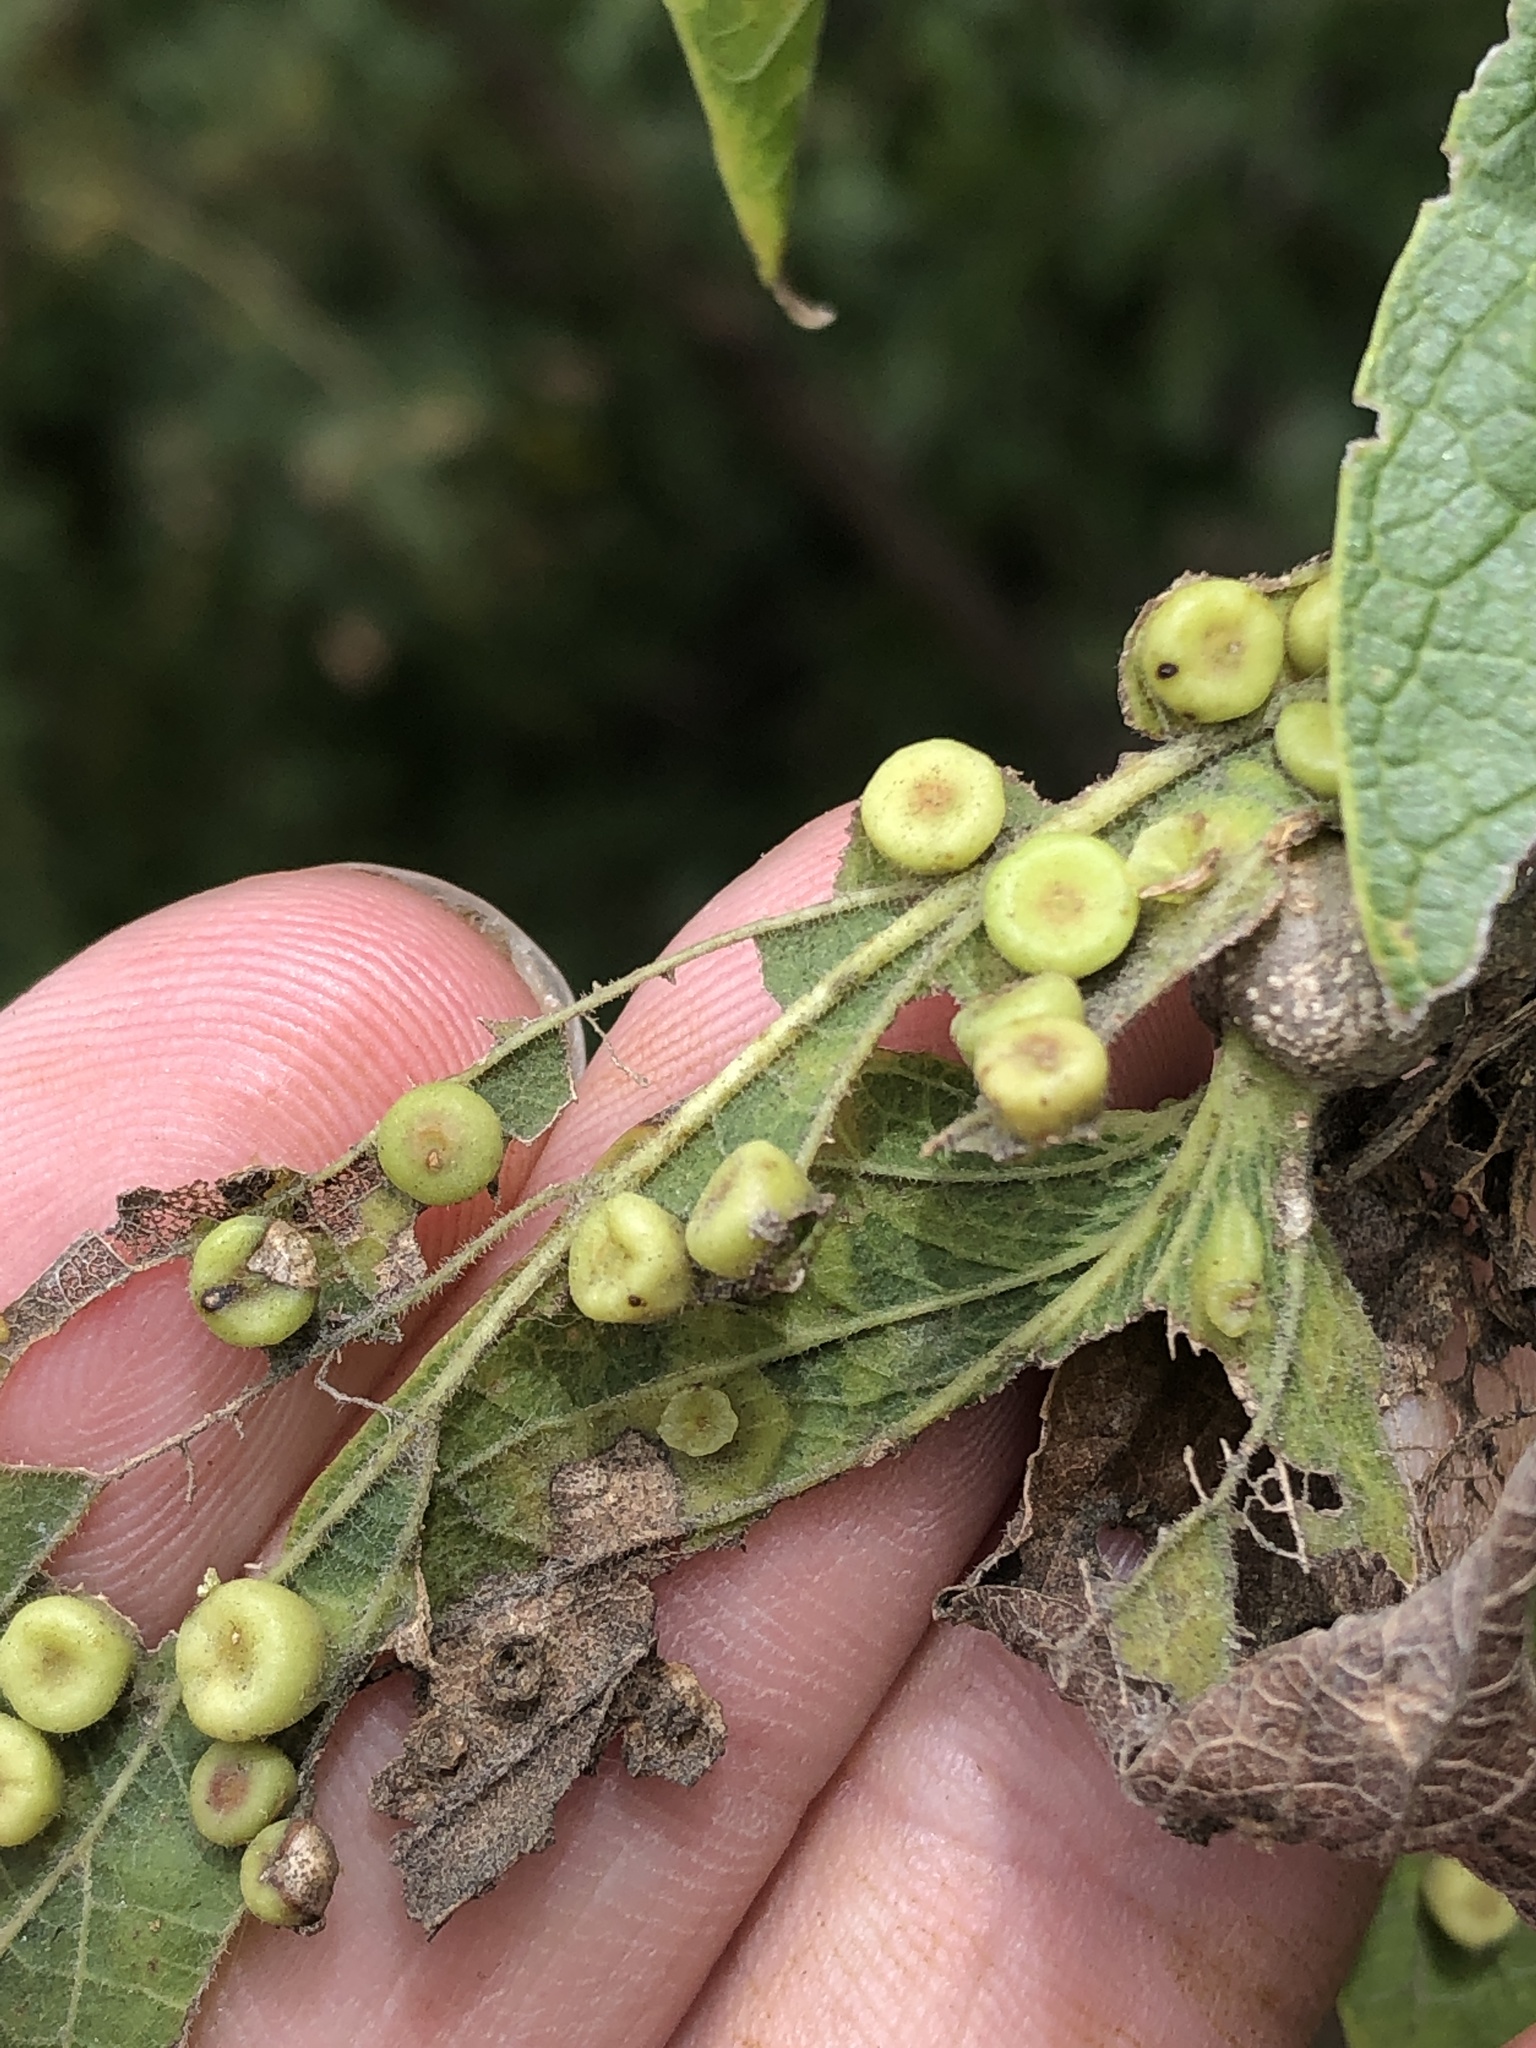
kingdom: Animalia
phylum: Arthropoda
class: Insecta
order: Hemiptera
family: Aphalaridae
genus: Pachypsylla
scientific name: Pachypsylla celtidismamma
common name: Hackberry nipplegall psyllid
